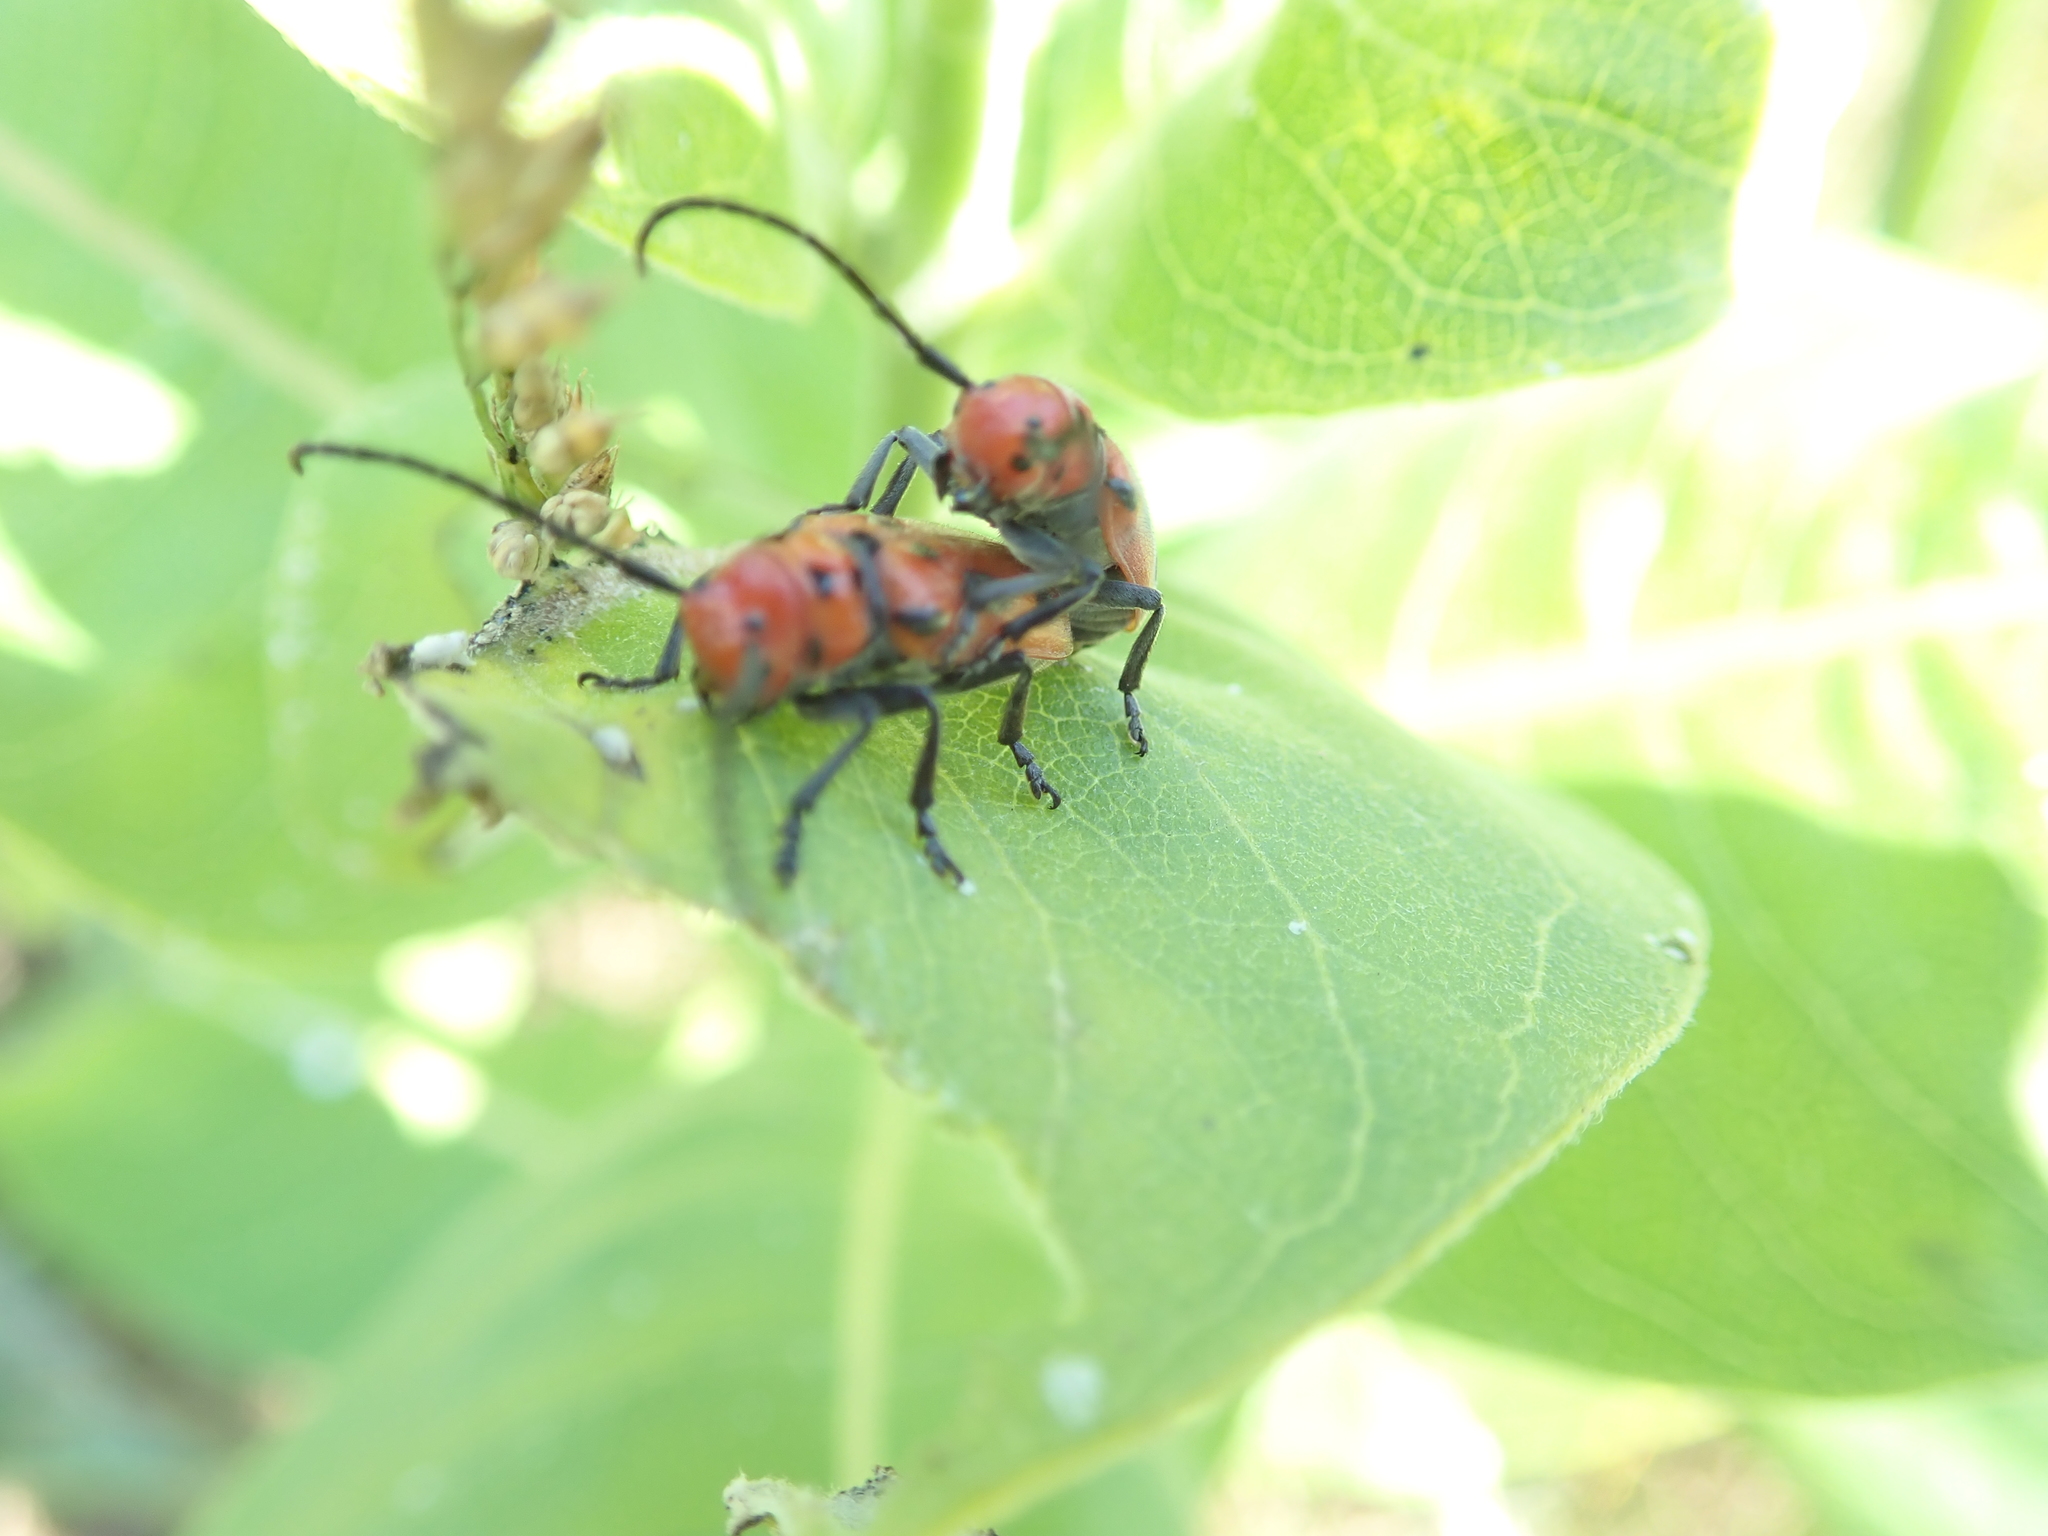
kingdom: Animalia
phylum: Arthropoda
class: Insecta
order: Coleoptera
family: Cerambycidae
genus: Tetraopes
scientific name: Tetraopes tetrophthalmus
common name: Red milkweed beetle
